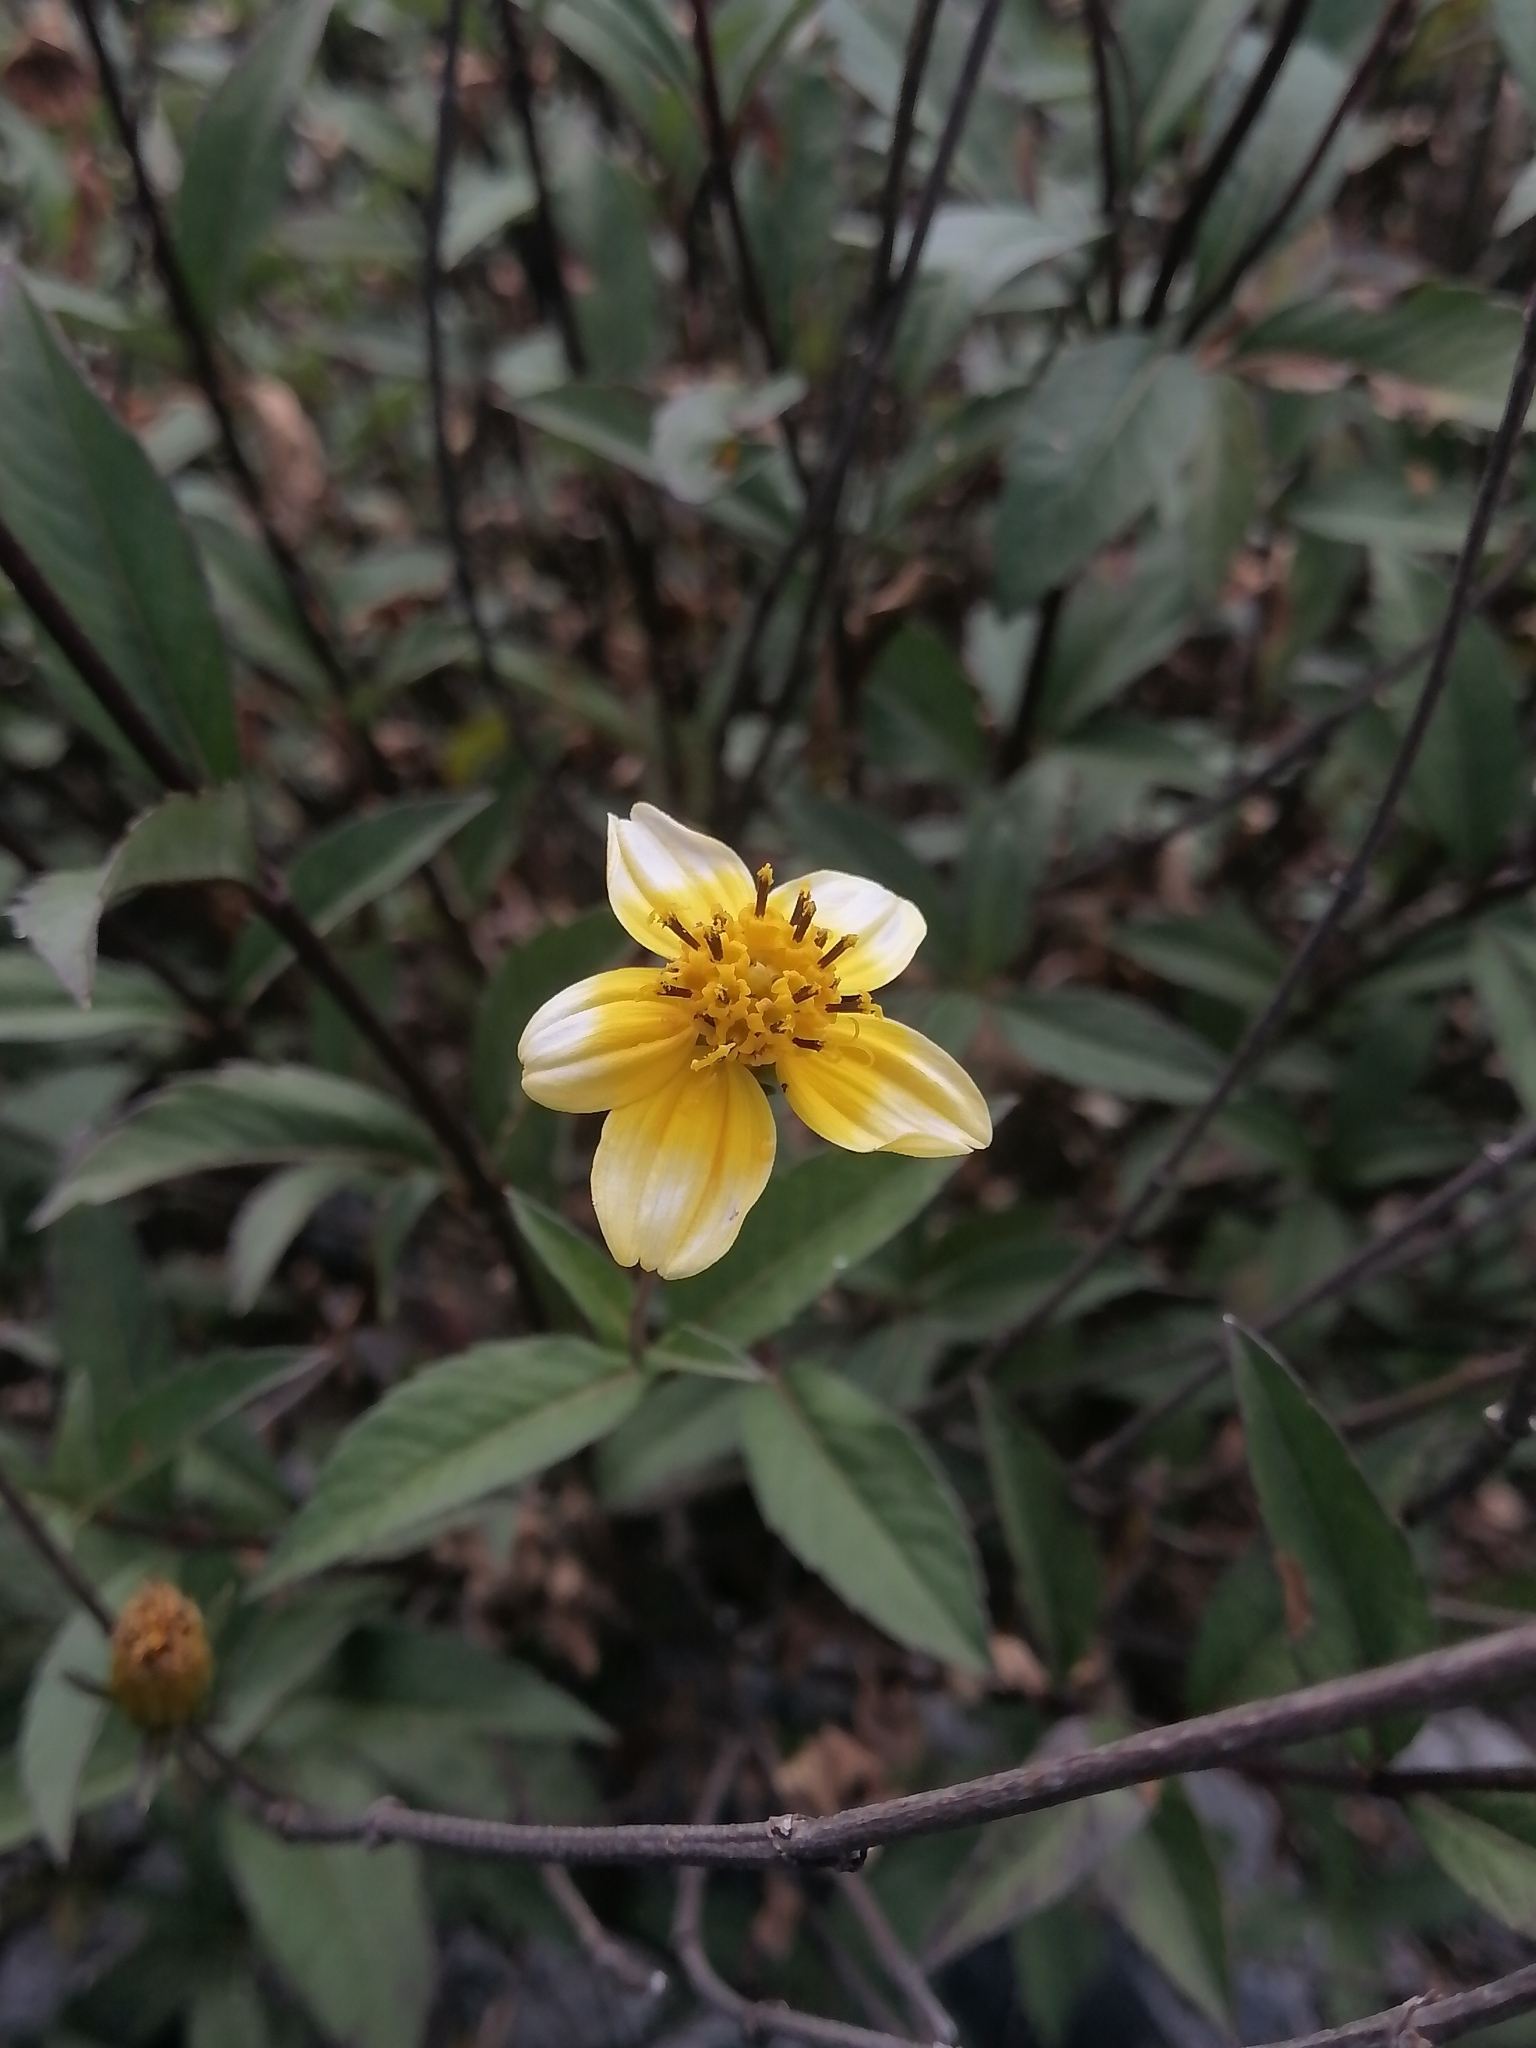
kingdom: Plantae
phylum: Tracheophyta
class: Magnoliopsida
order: Asterales
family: Asteraceae
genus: Electranthera
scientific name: Electranthera mutica
